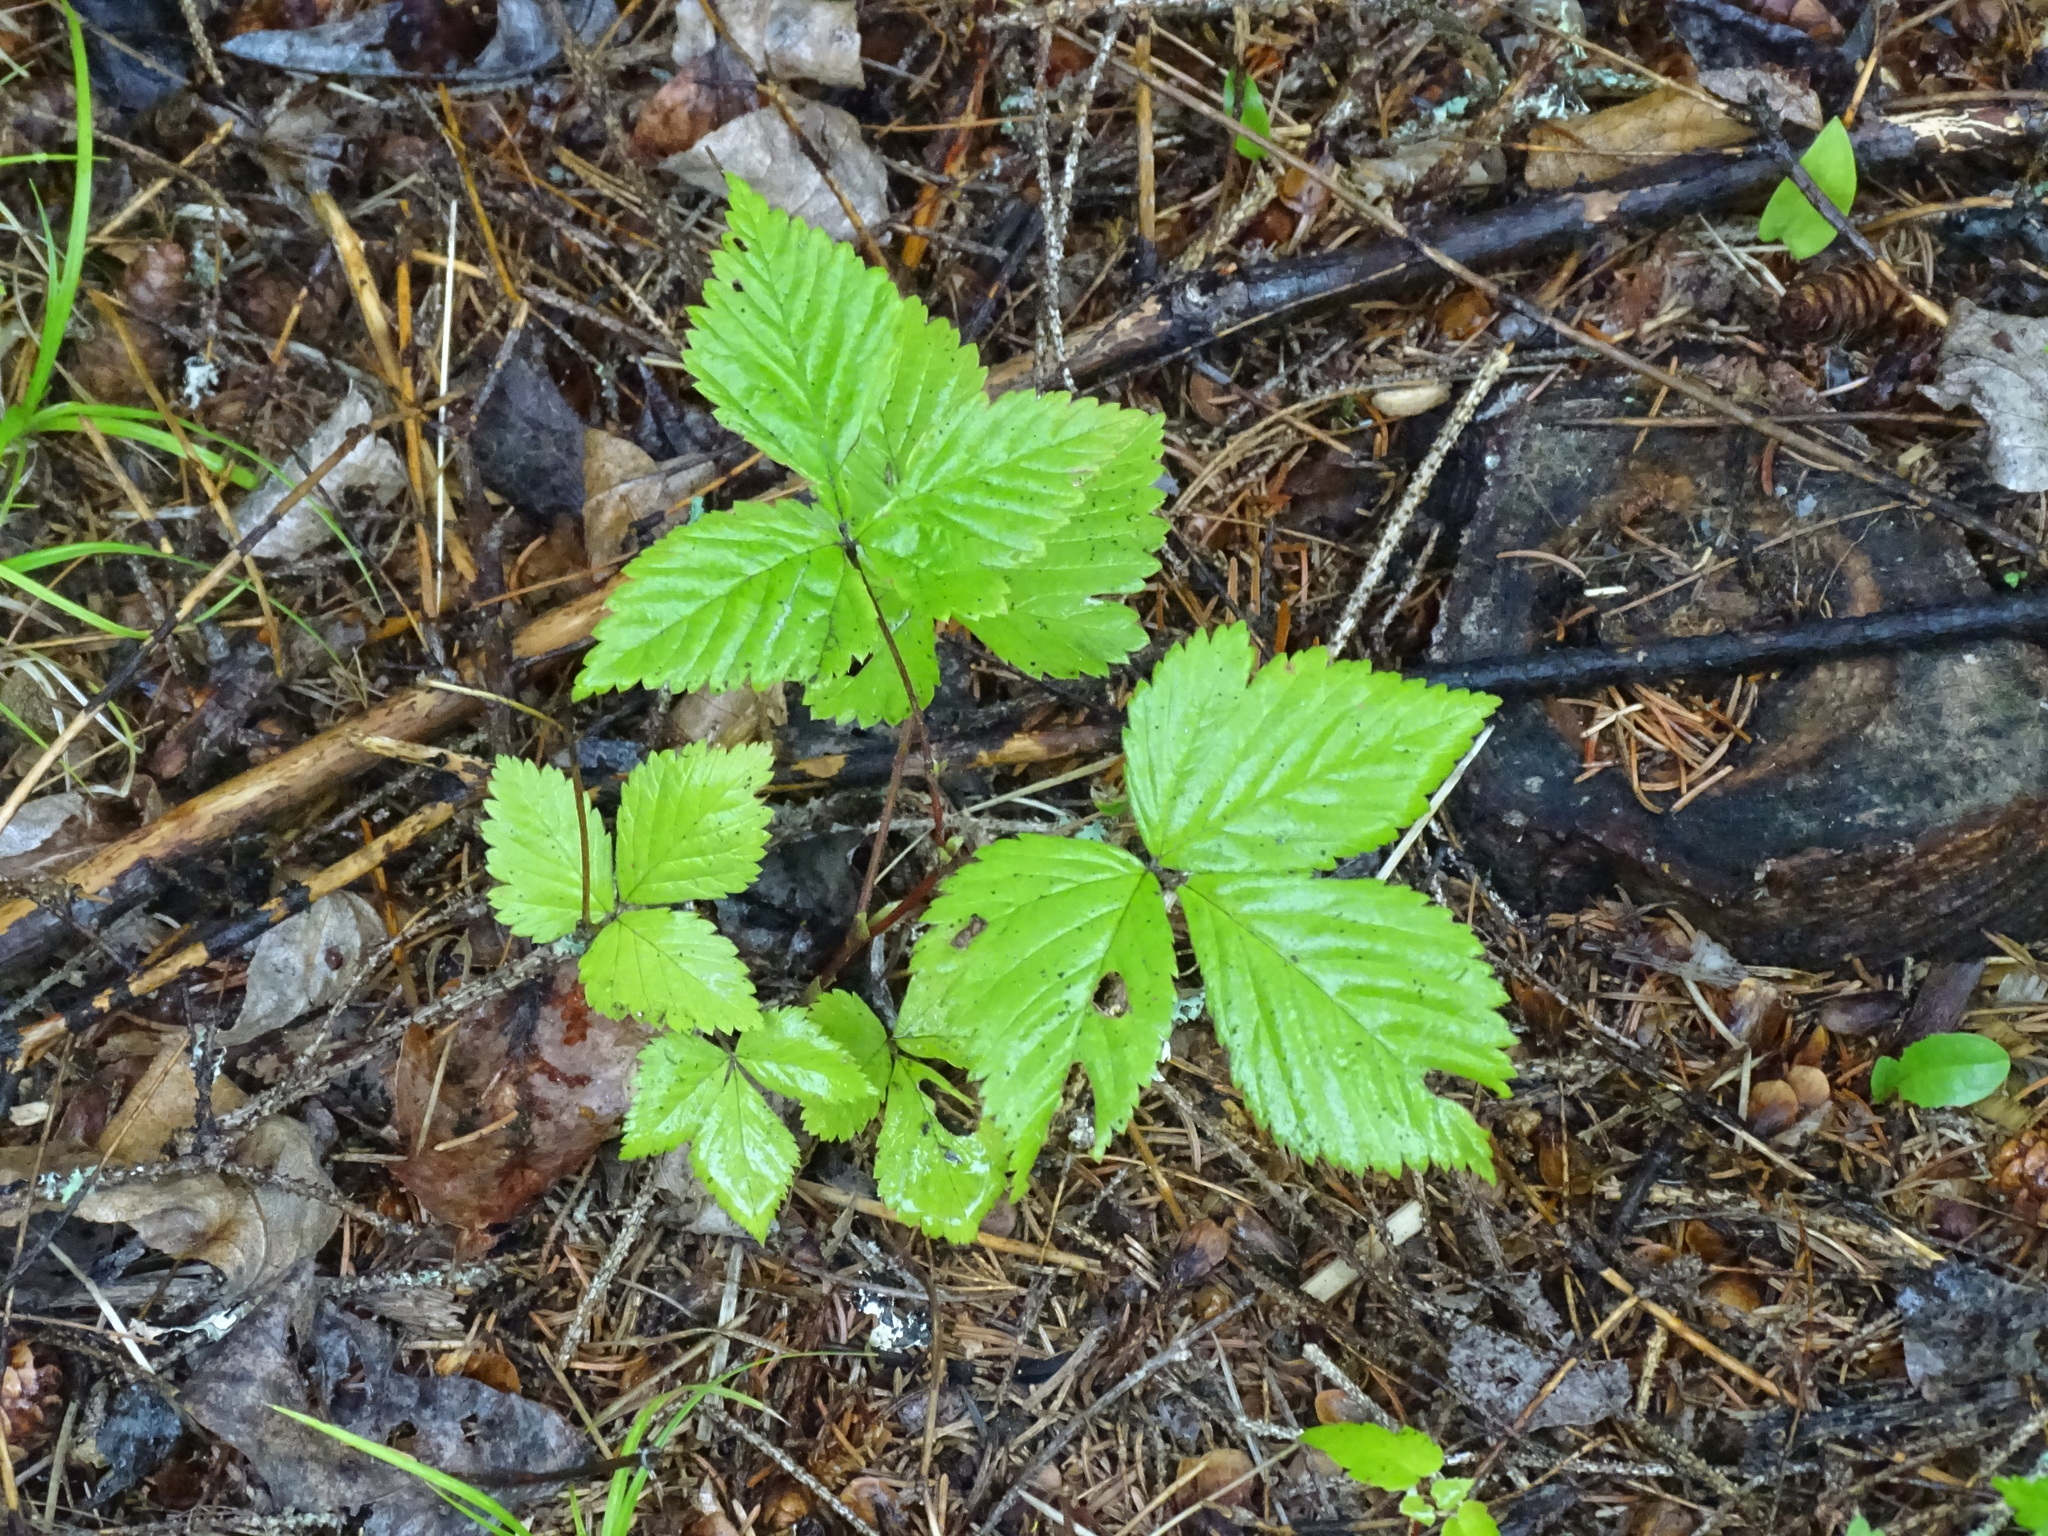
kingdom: Plantae
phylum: Tracheophyta
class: Magnoliopsida
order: Rosales
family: Rosaceae
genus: Rubus
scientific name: Rubus pubescens
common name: Dwarf raspberry
